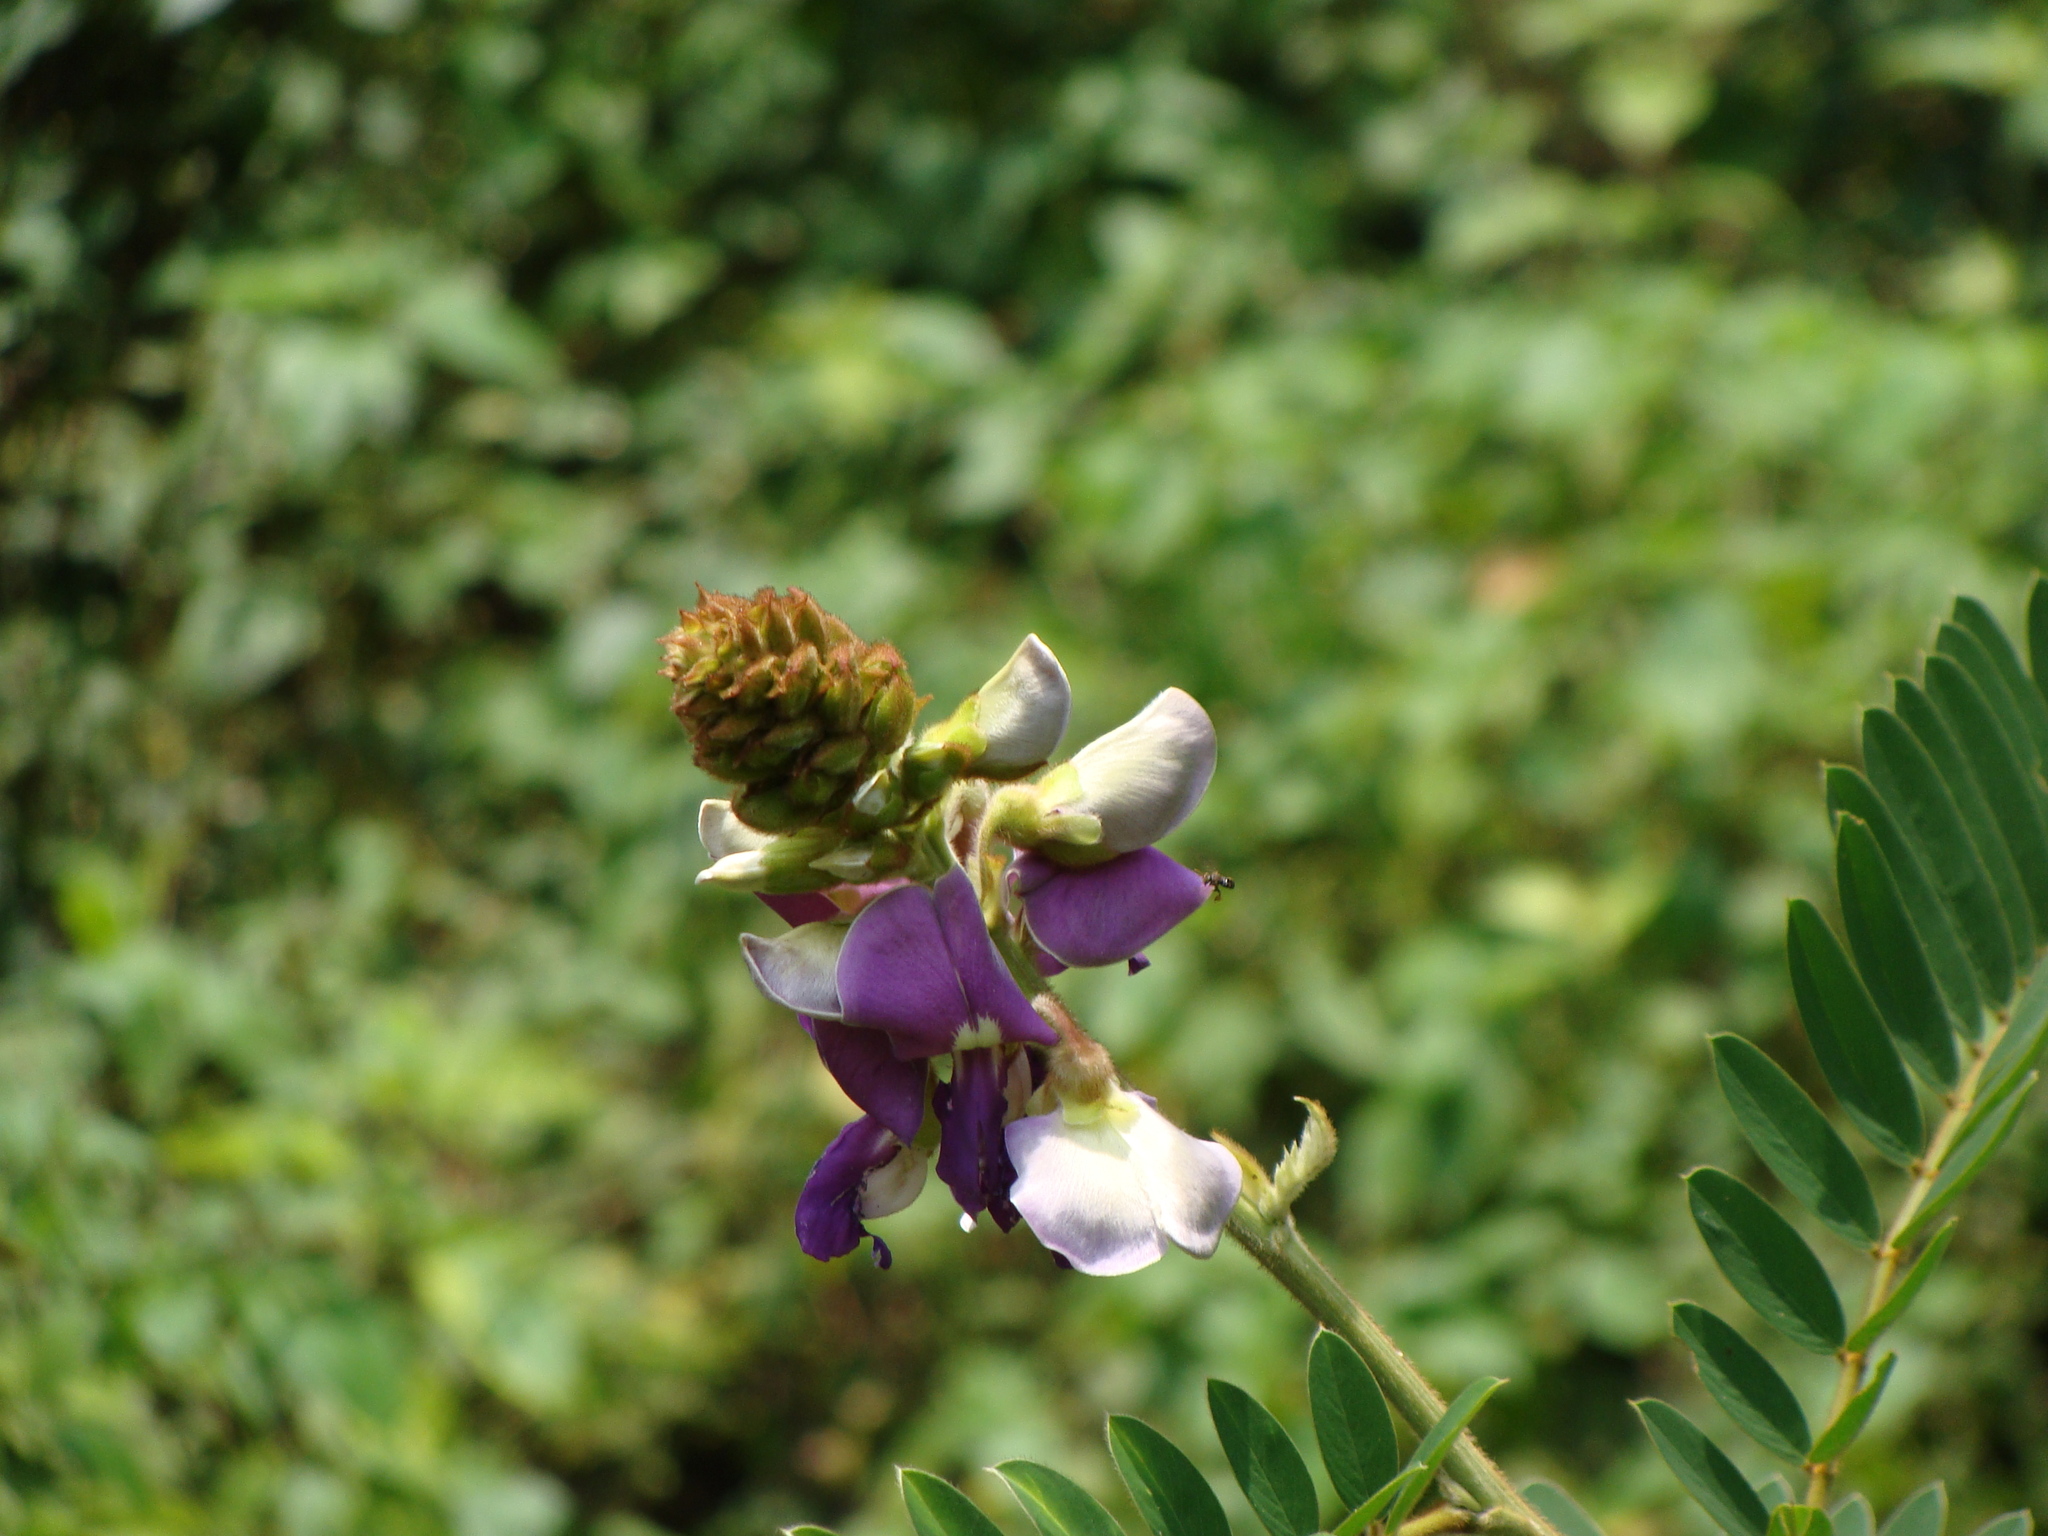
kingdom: Plantae
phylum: Tracheophyta
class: Magnoliopsida
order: Fabales
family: Fabaceae
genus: Tephrosia
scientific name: Tephrosia vogelii
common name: Vogel tephrosia
